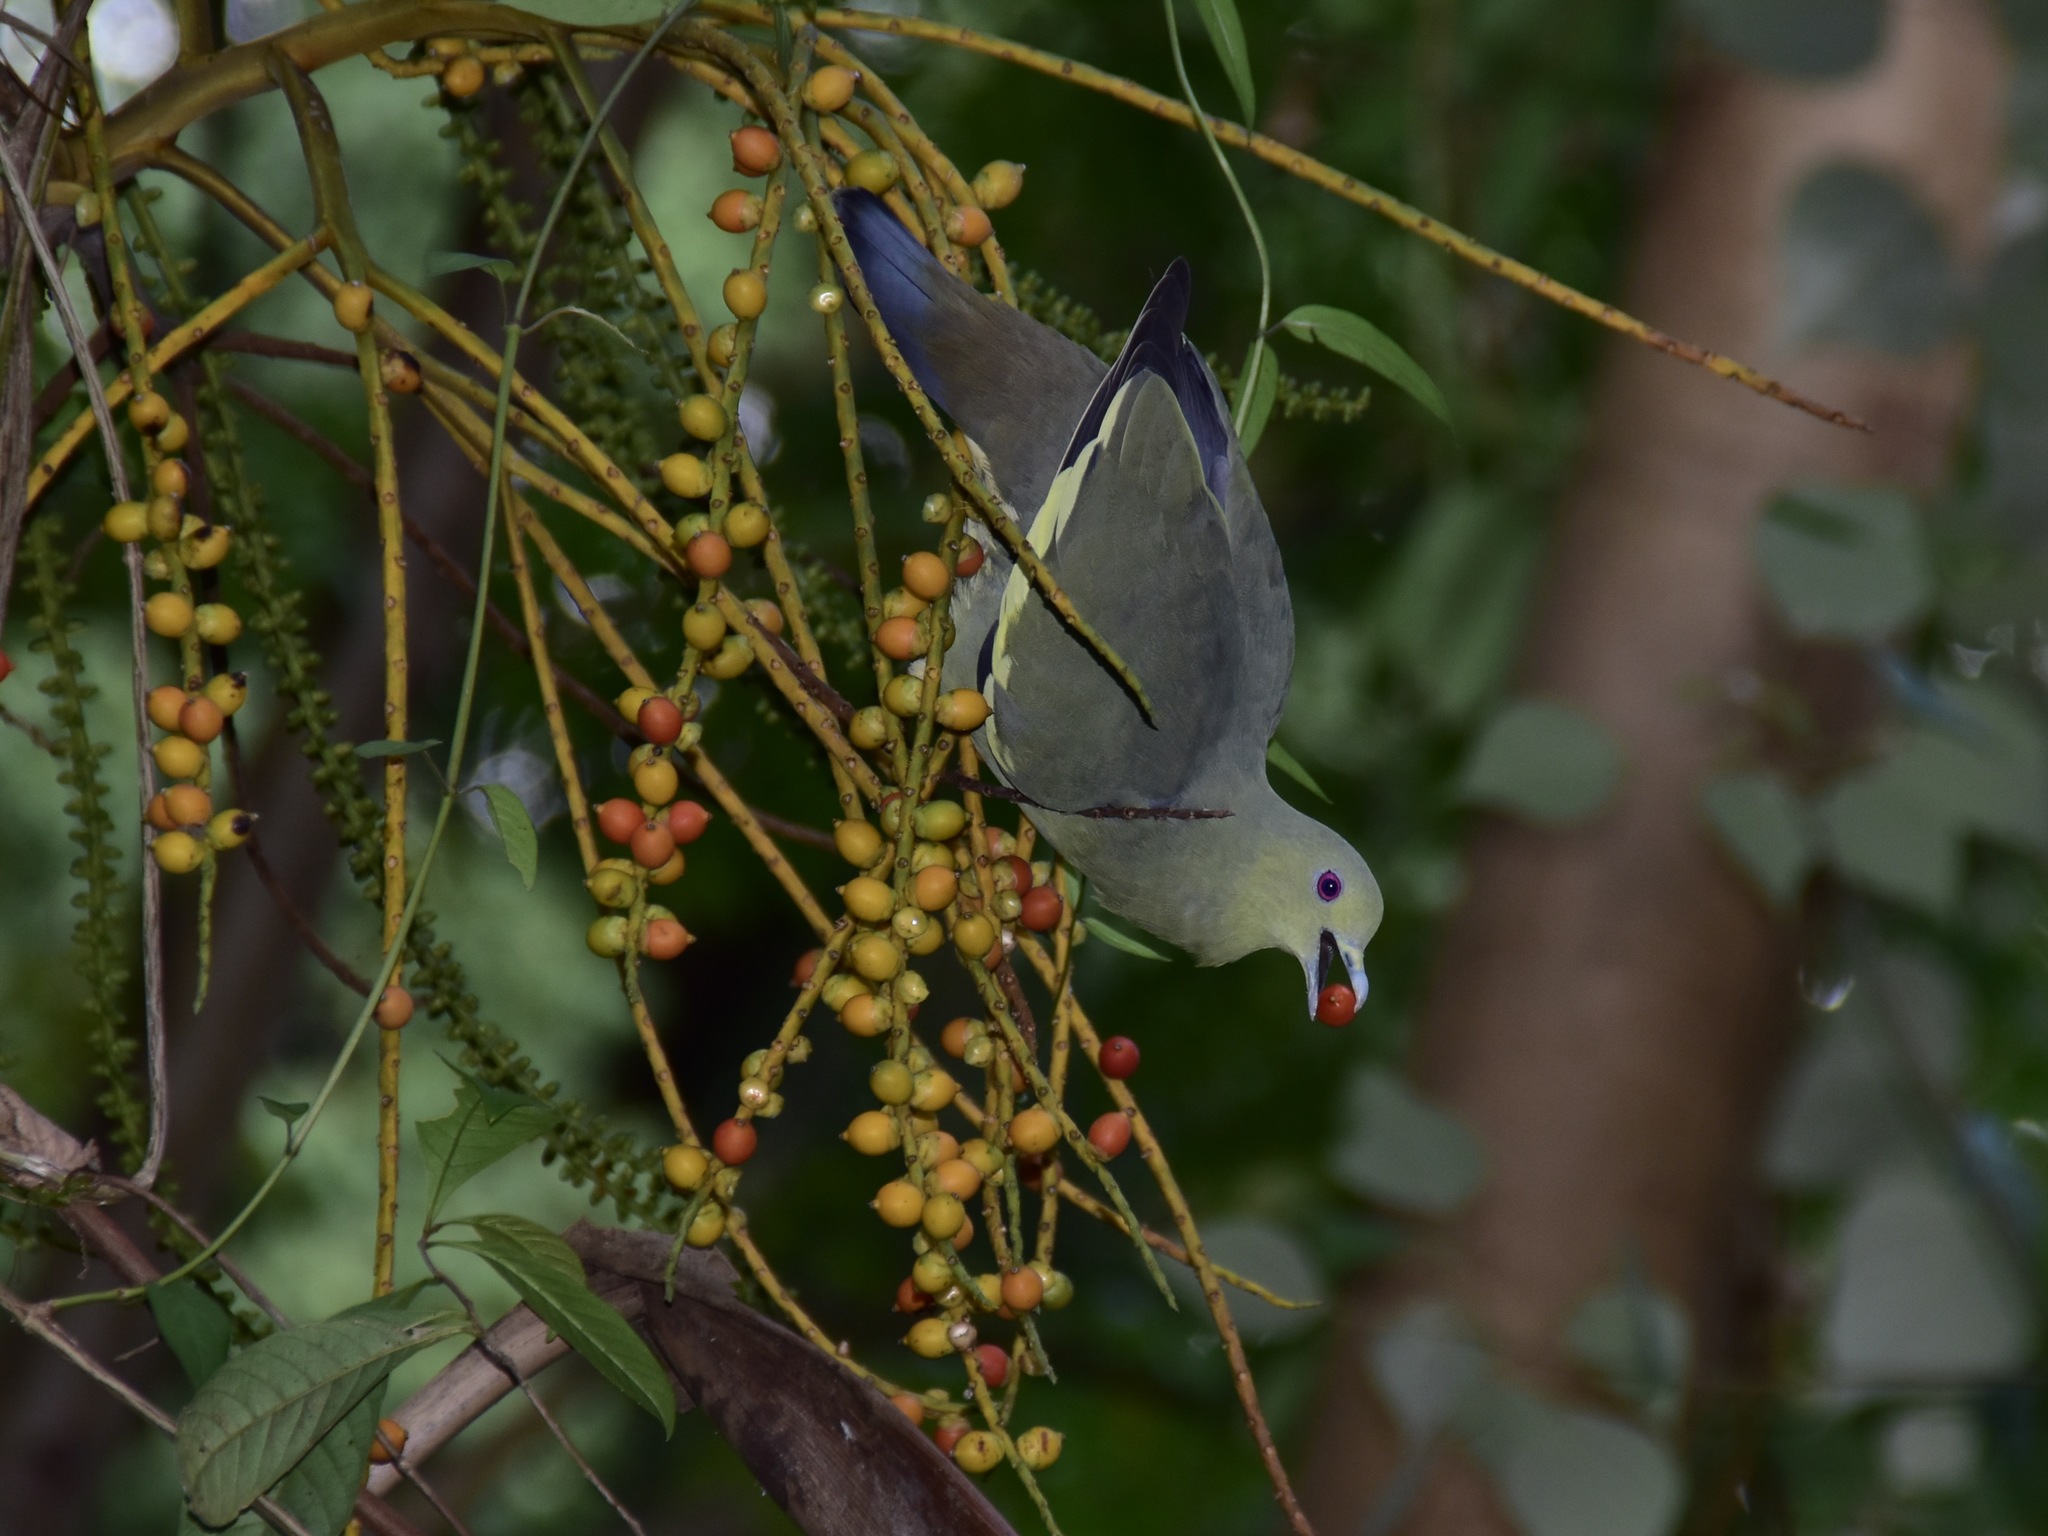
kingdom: Animalia
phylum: Chordata
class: Aves
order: Columbiformes
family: Columbidae
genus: Treron
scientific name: Treron vernans
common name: Pink-necked green pigeon
